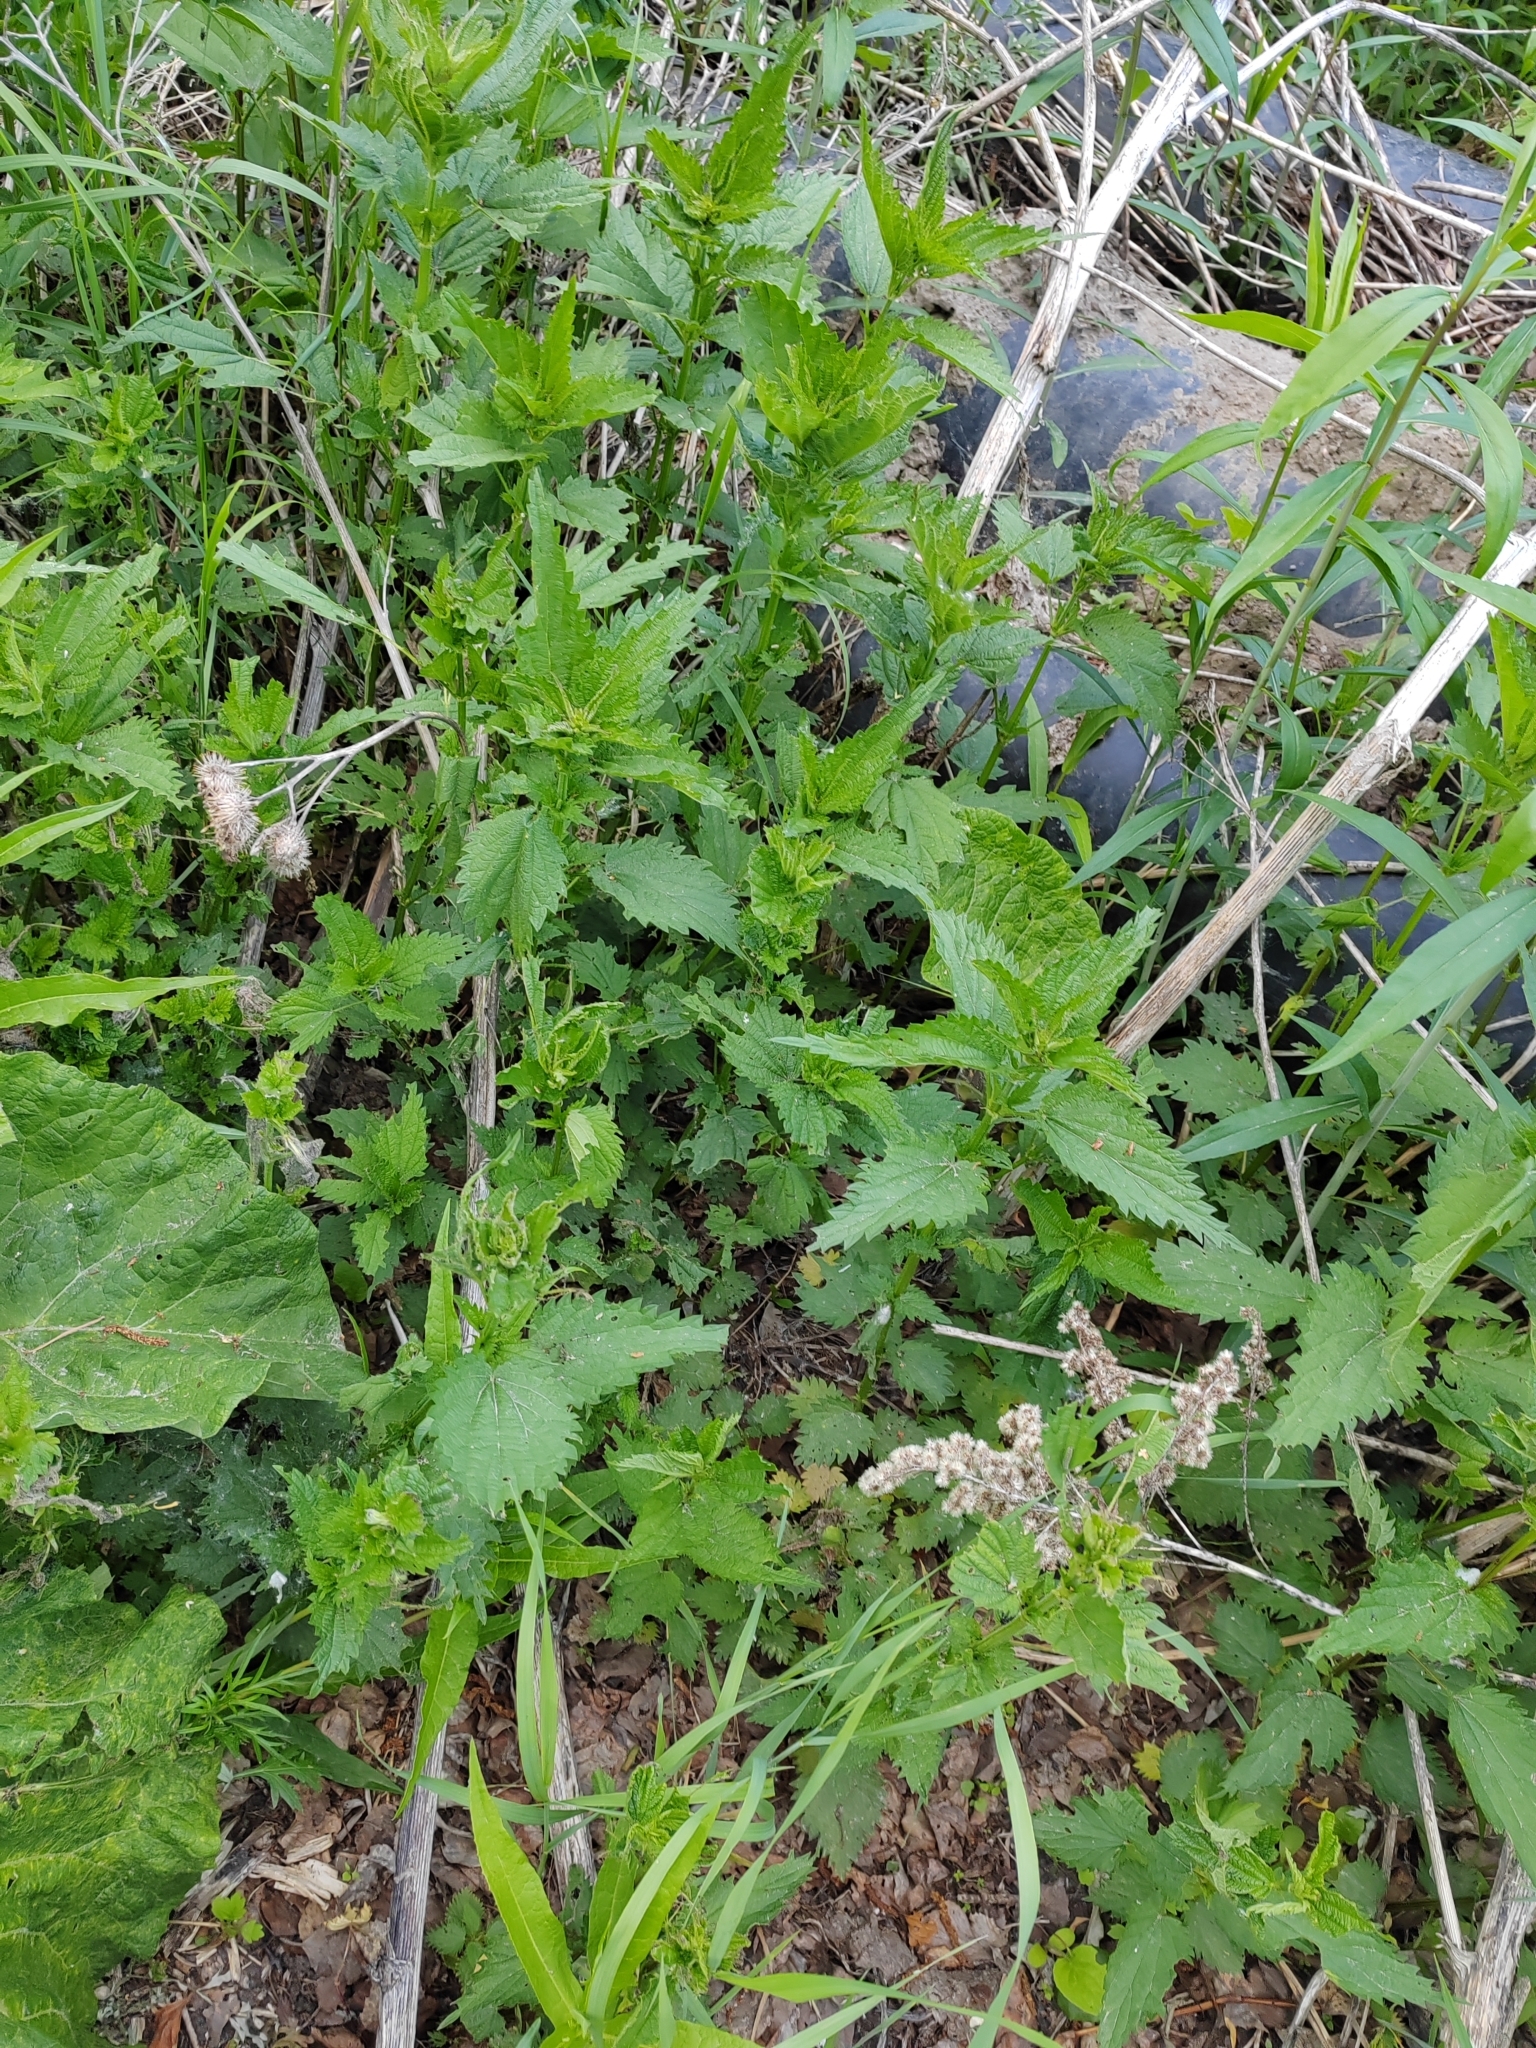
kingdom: Plantae
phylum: Tracheophyta
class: Magnoliopsida
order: Rosales
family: Urticaceae
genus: Urtica
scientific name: Urtica dioica
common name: Common nettle
